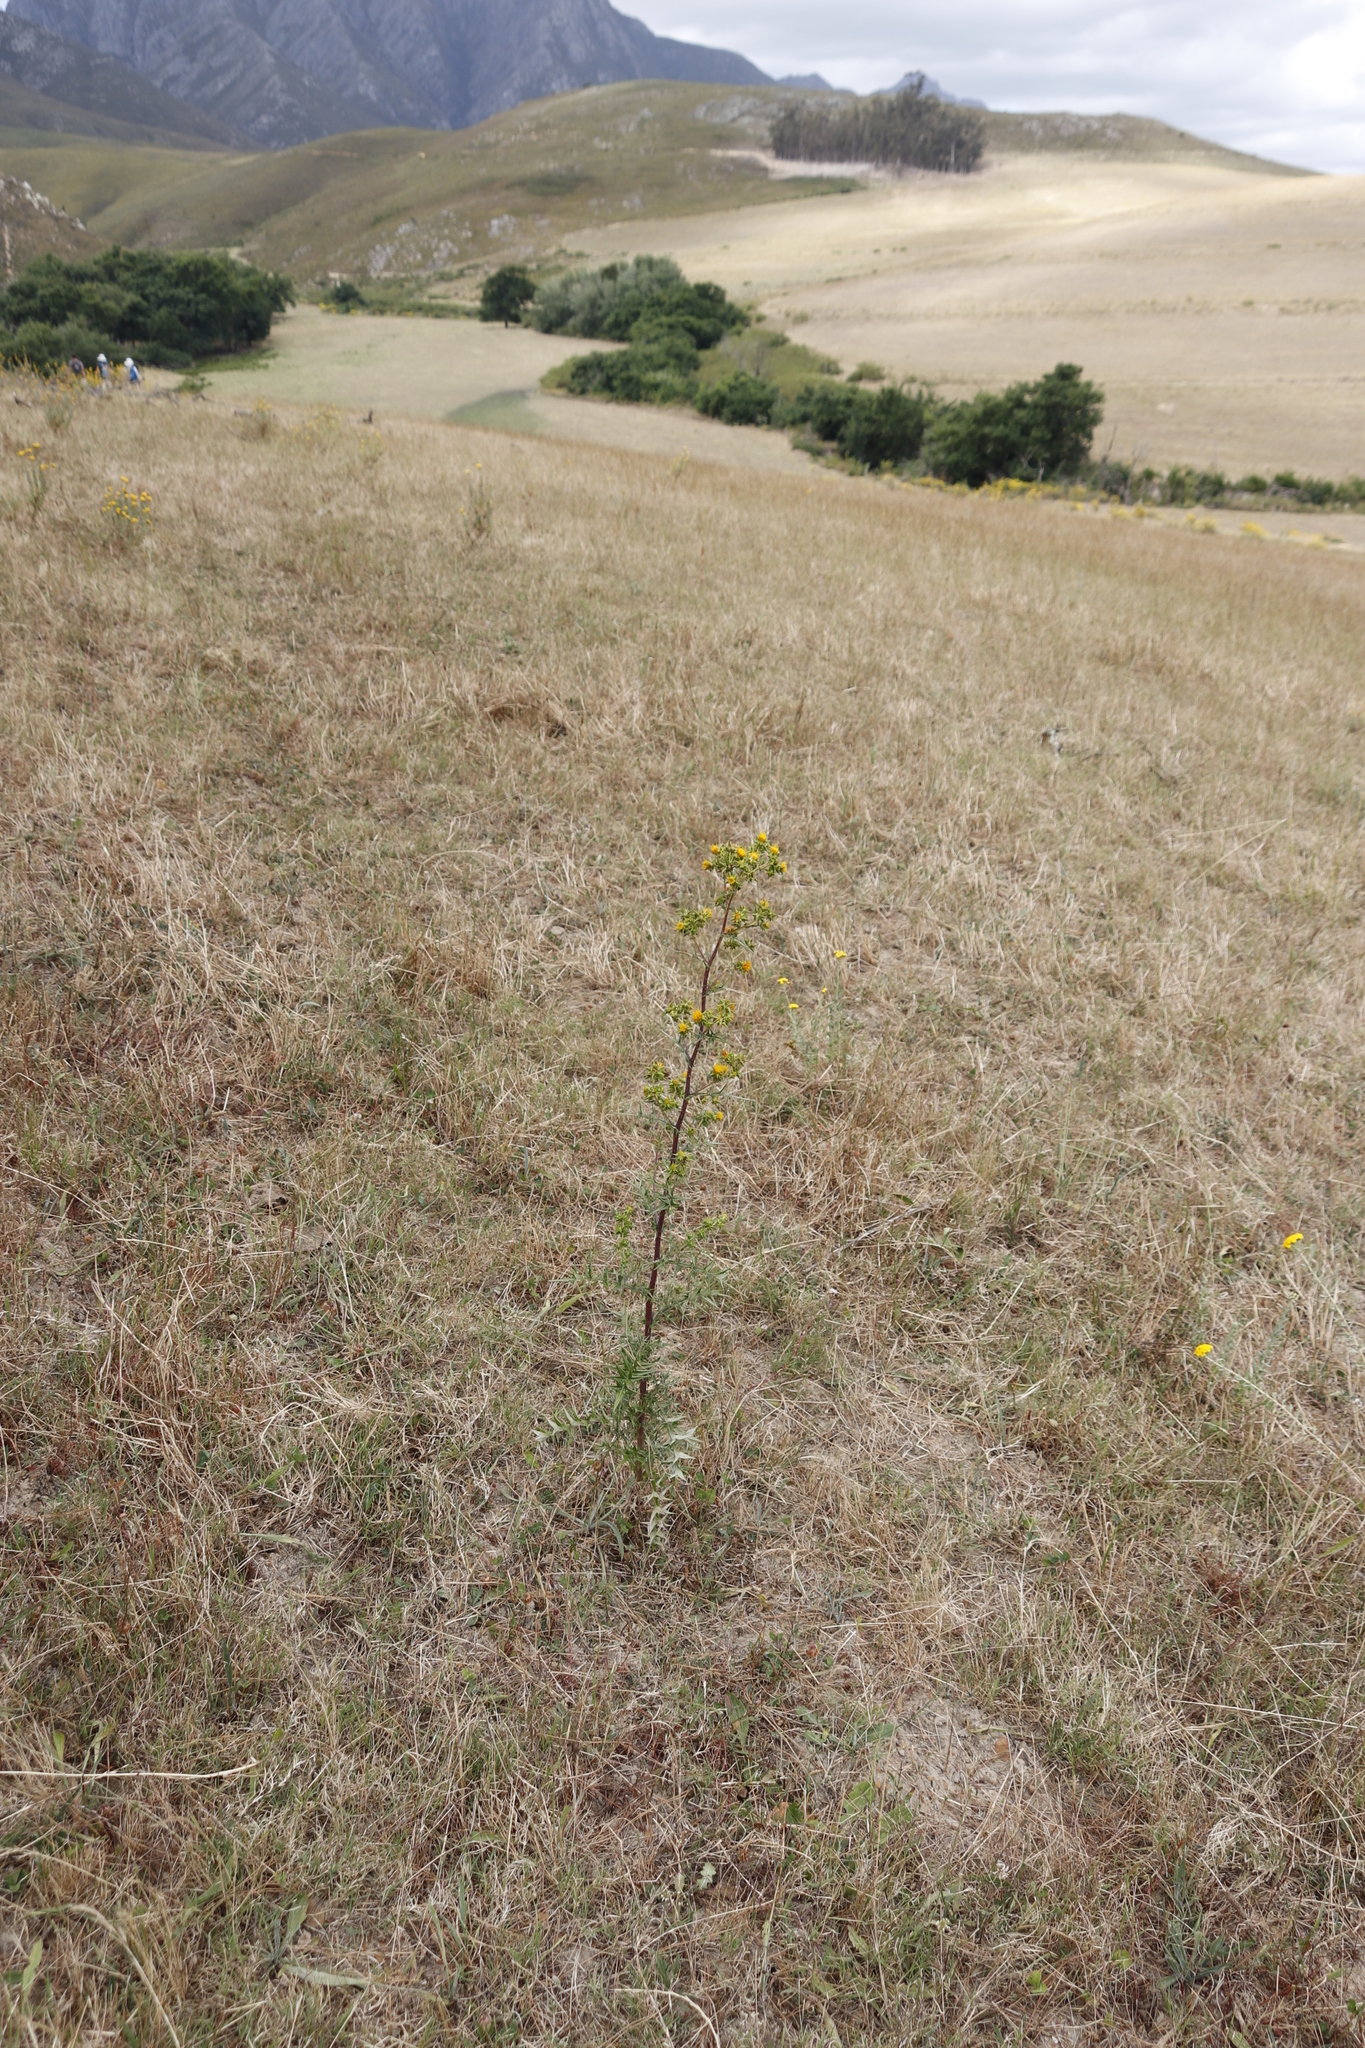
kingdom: Plantae
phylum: Tracheophyta
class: Magnoliopsida
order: Asterales
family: Asteraceae
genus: Berkheya
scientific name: Berkheya rigida
